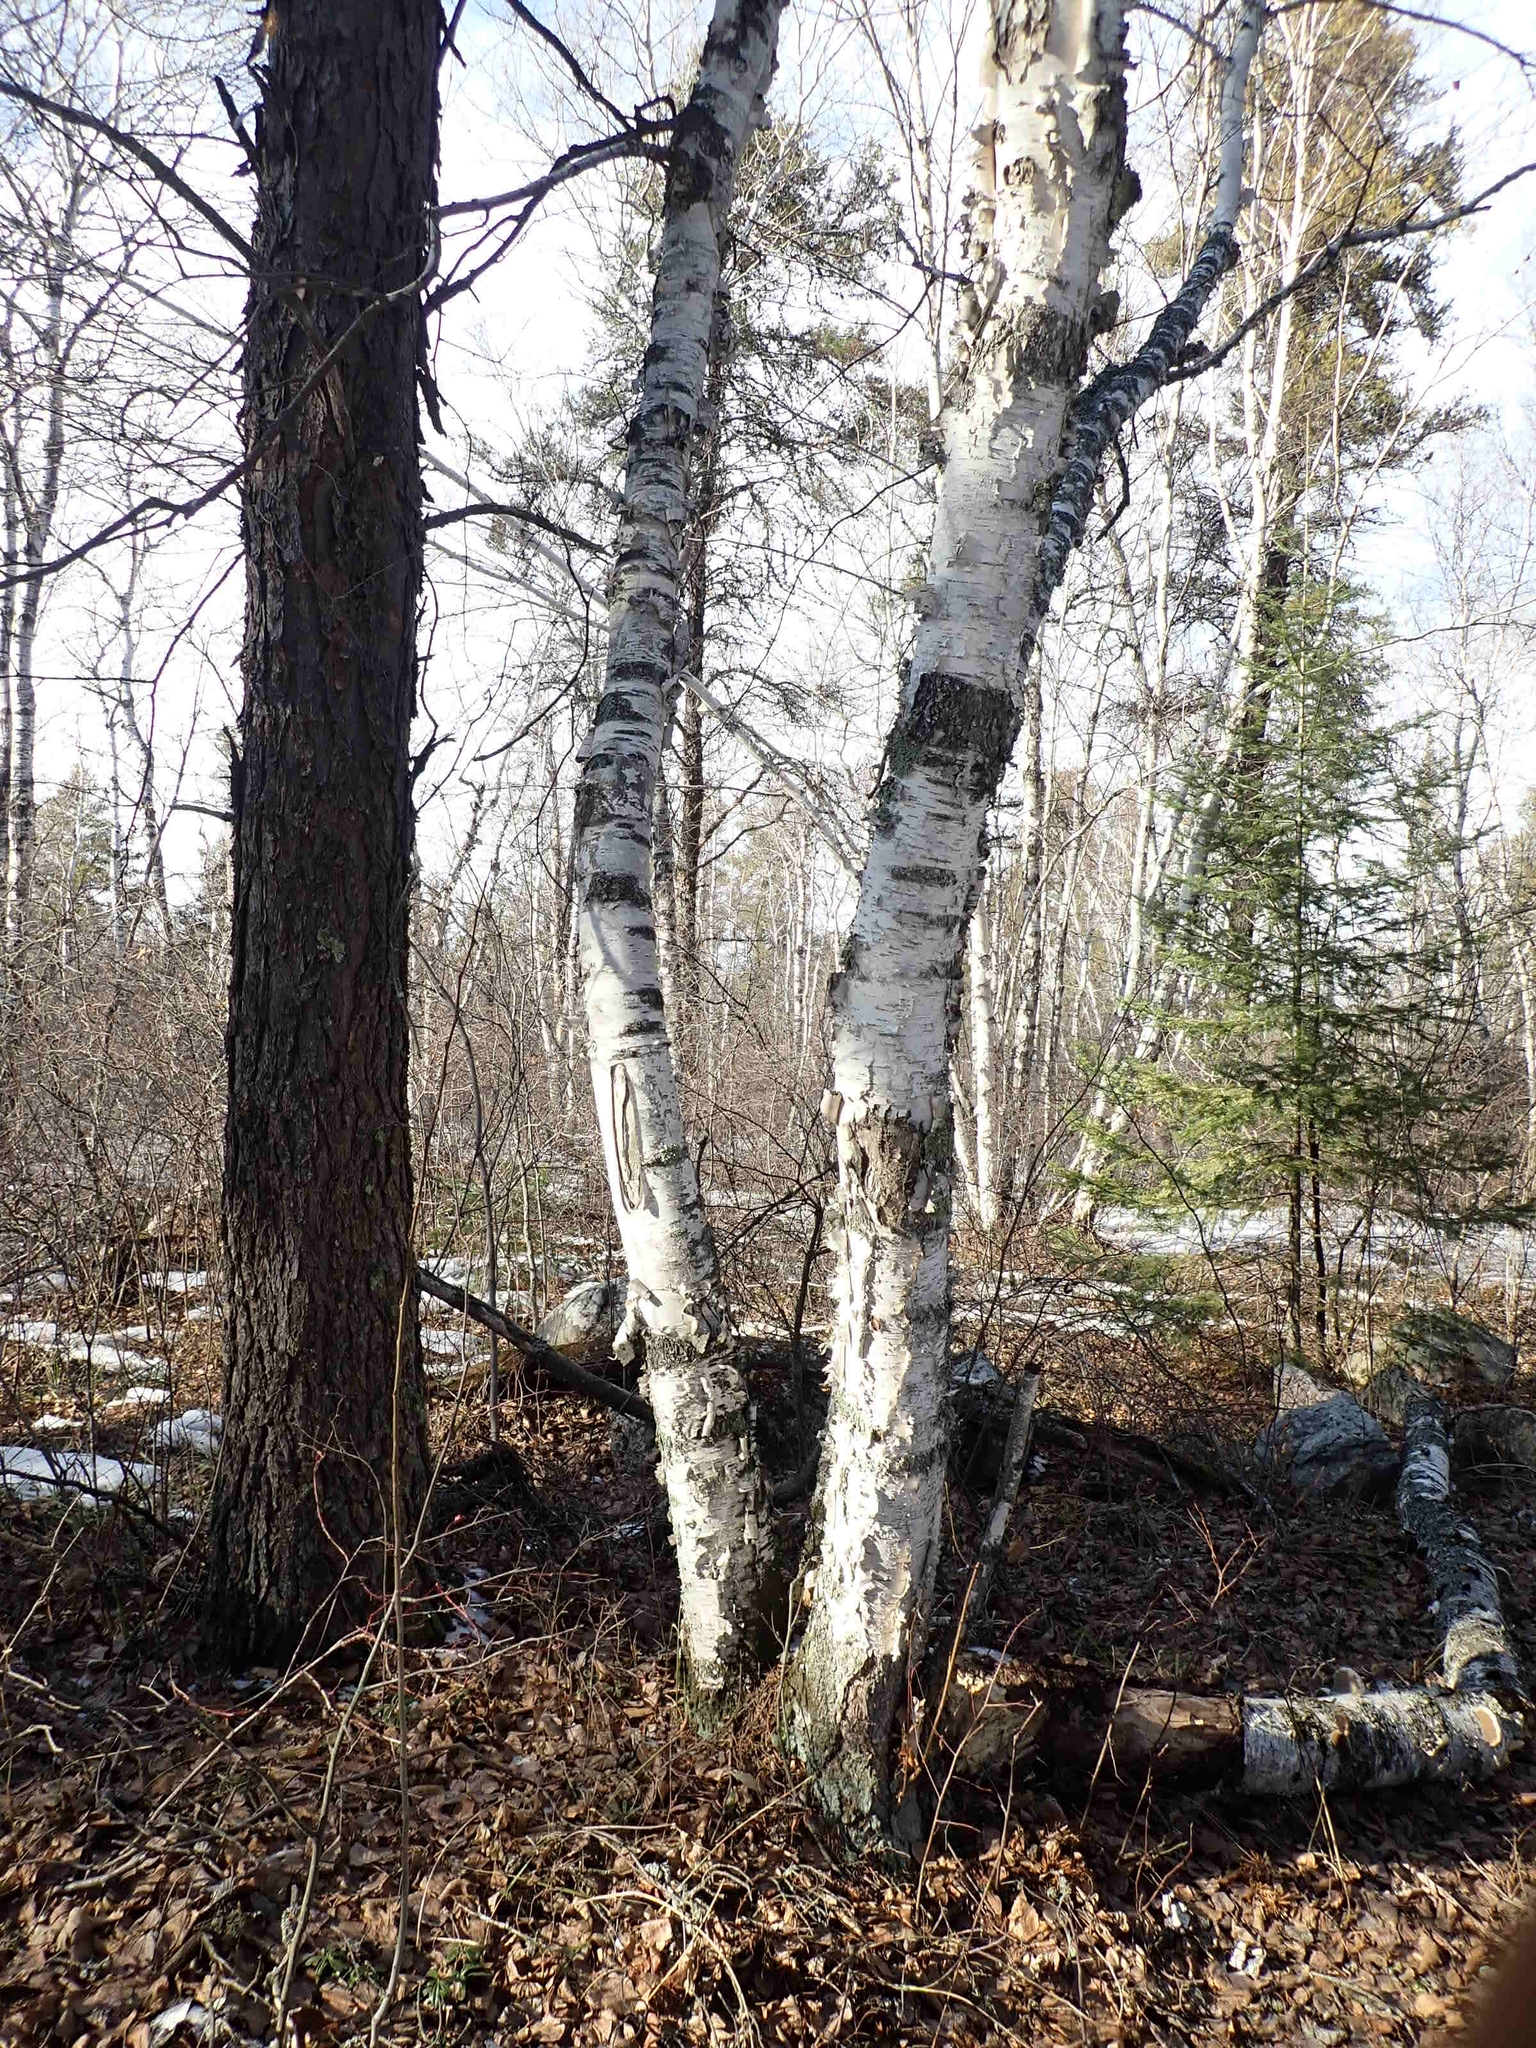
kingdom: Plantae
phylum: Tracheophyta
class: Magnoliopsida
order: Fagales
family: Betulaceae
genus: Betula
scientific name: Betula papyrifera
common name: Paper birch
